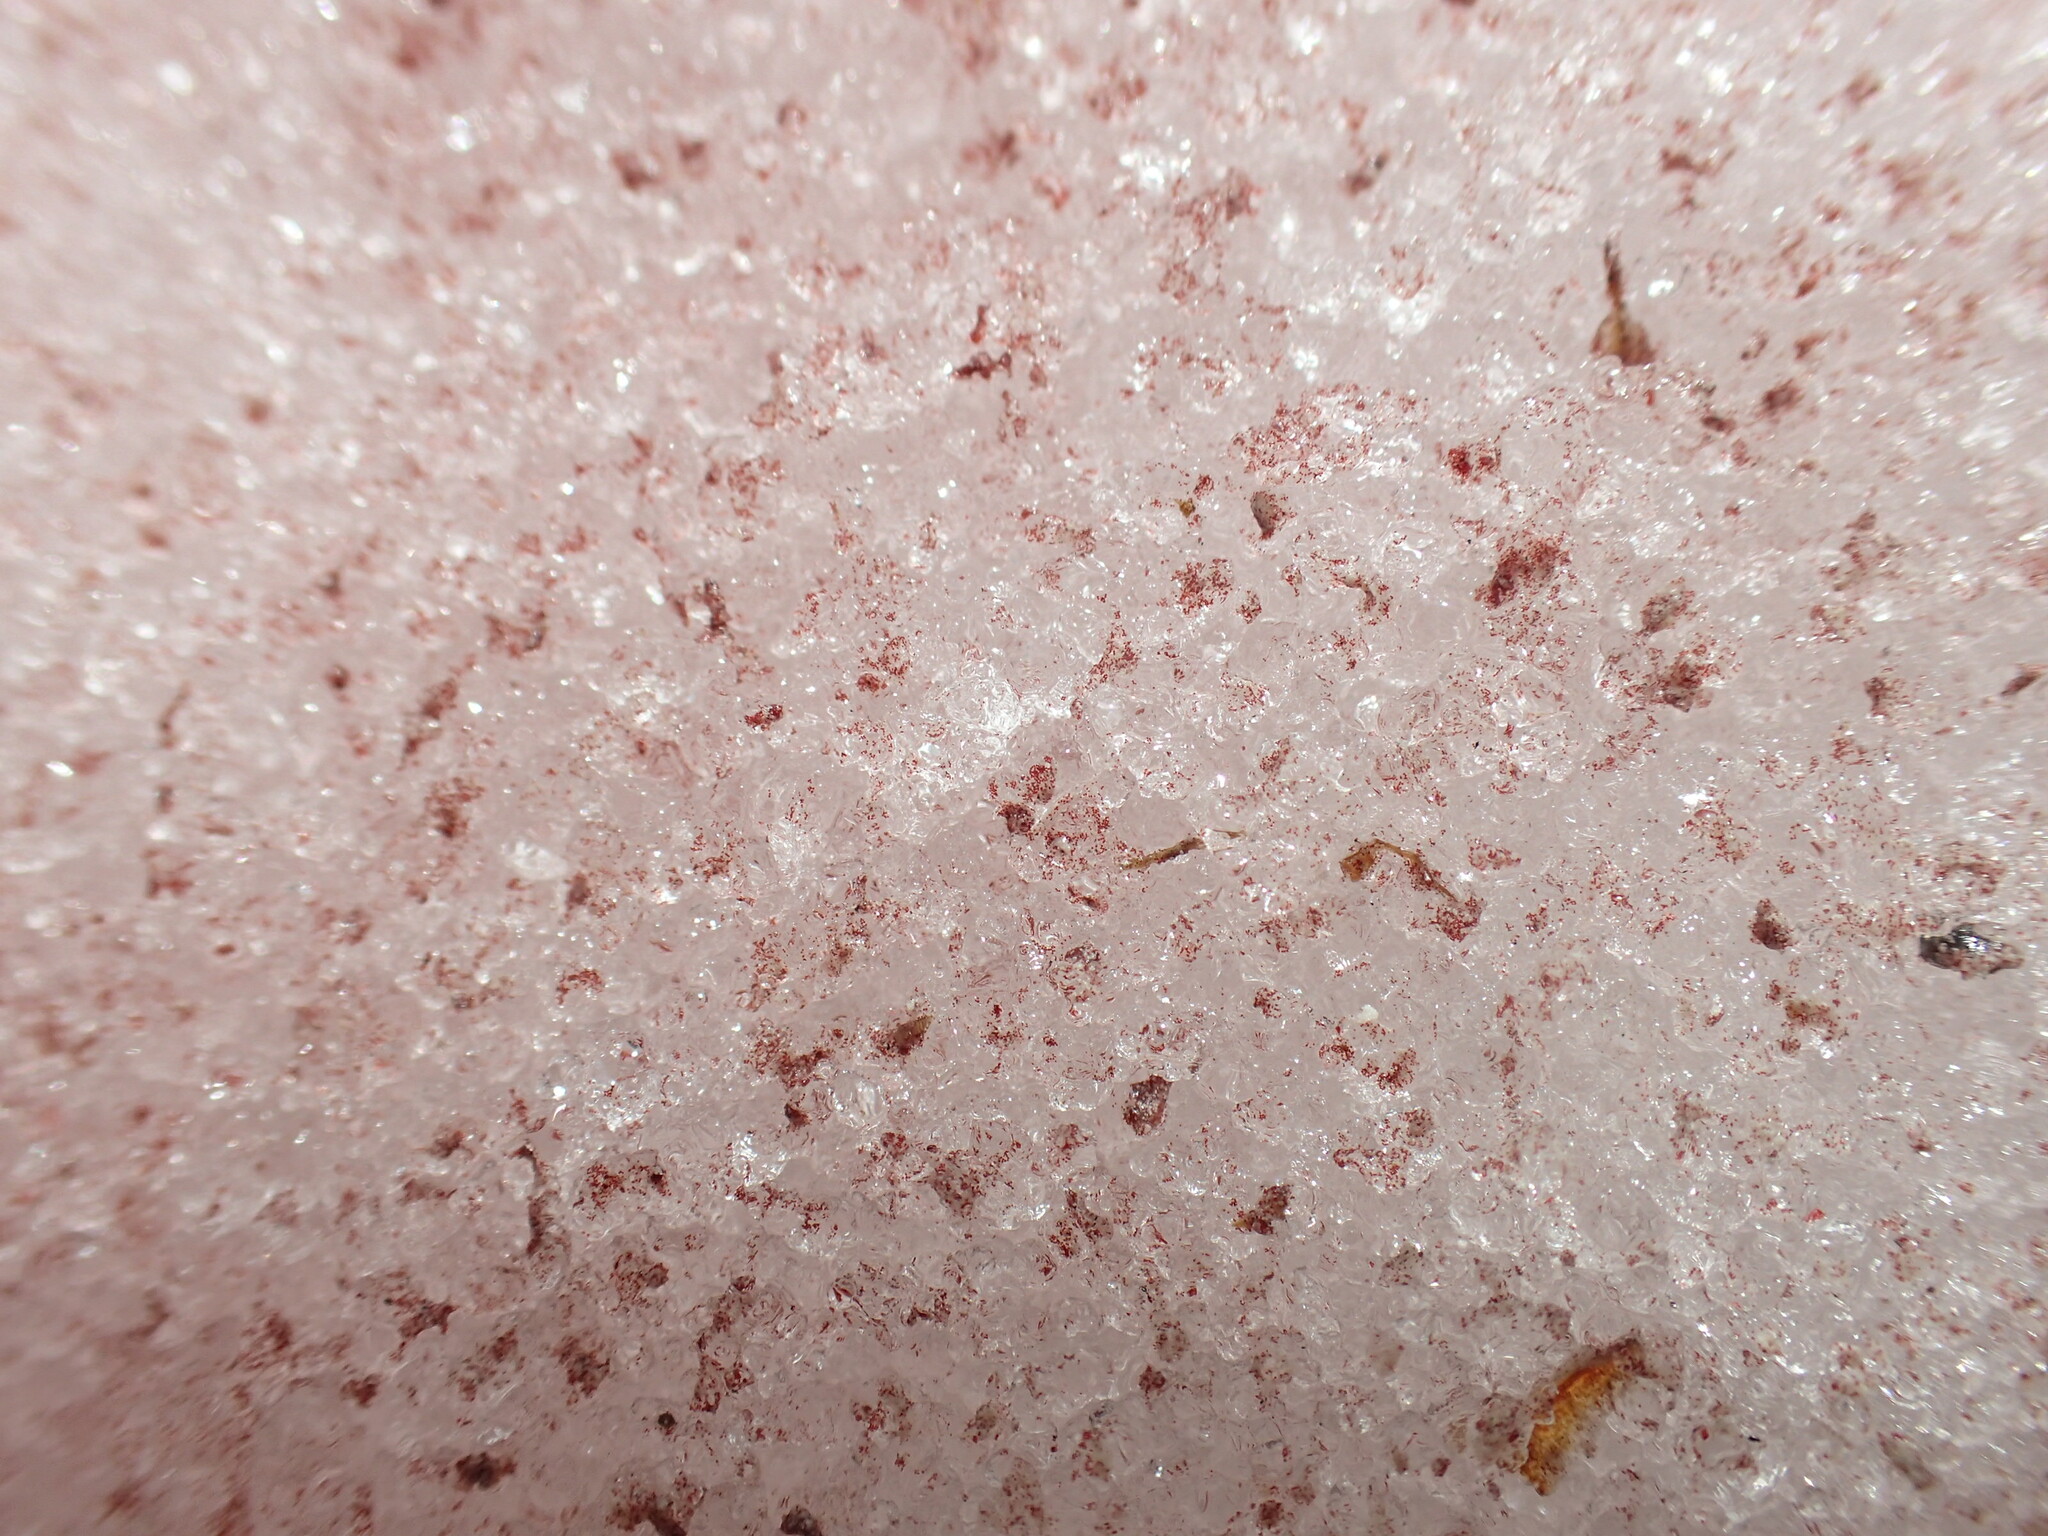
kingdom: Plantae
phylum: Chlorophyta
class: Chlorophyceae
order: Volvocales
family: Chlamydomonadaceae
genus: Chlamydomonas
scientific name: Chlamydomonas nivalis
